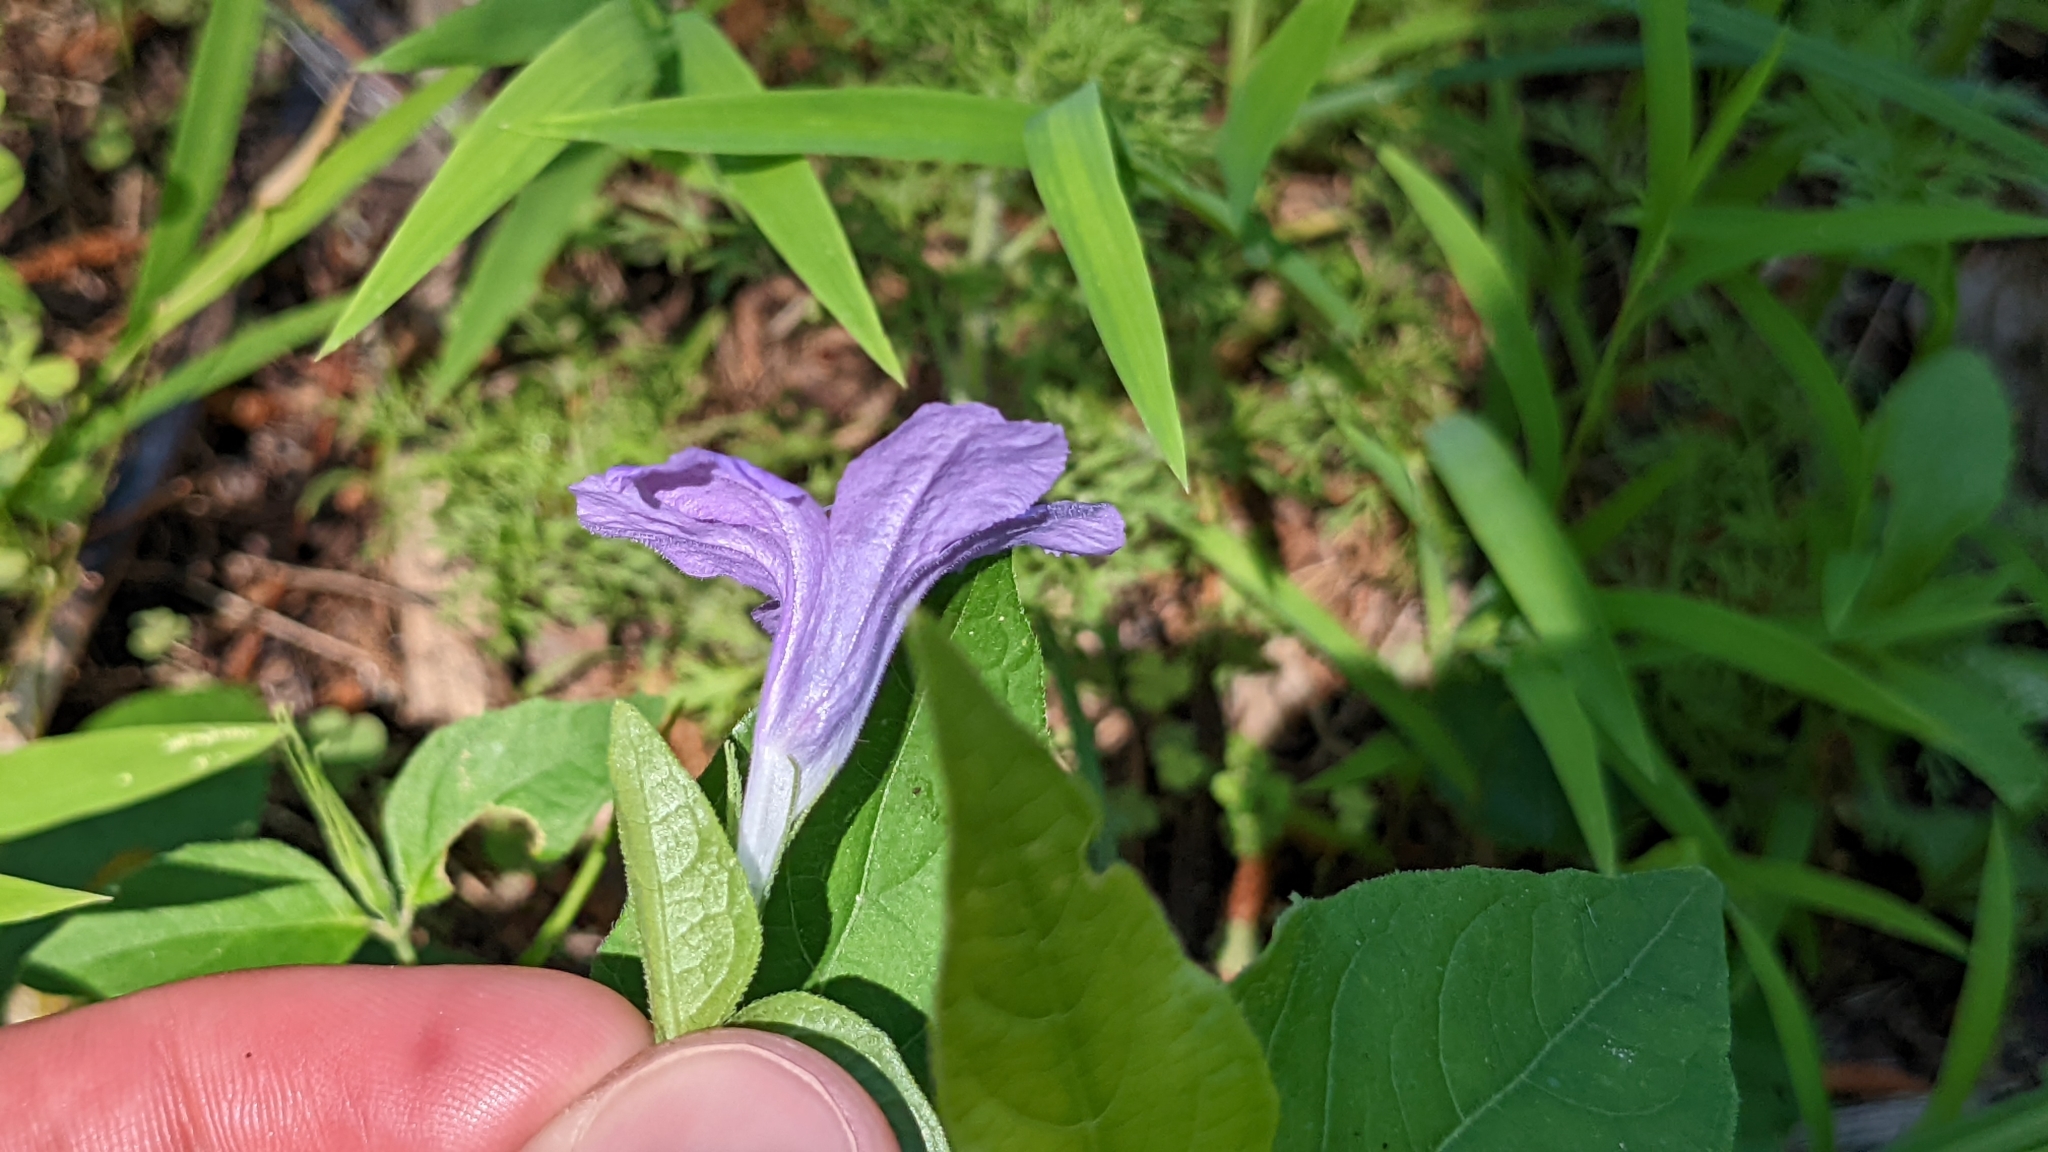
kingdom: Plantae
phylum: Tracheophyta
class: Magnoliopsida
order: Lamiales
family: Acanthaceae
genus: Ruellia
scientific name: Ruellia pedunculata
